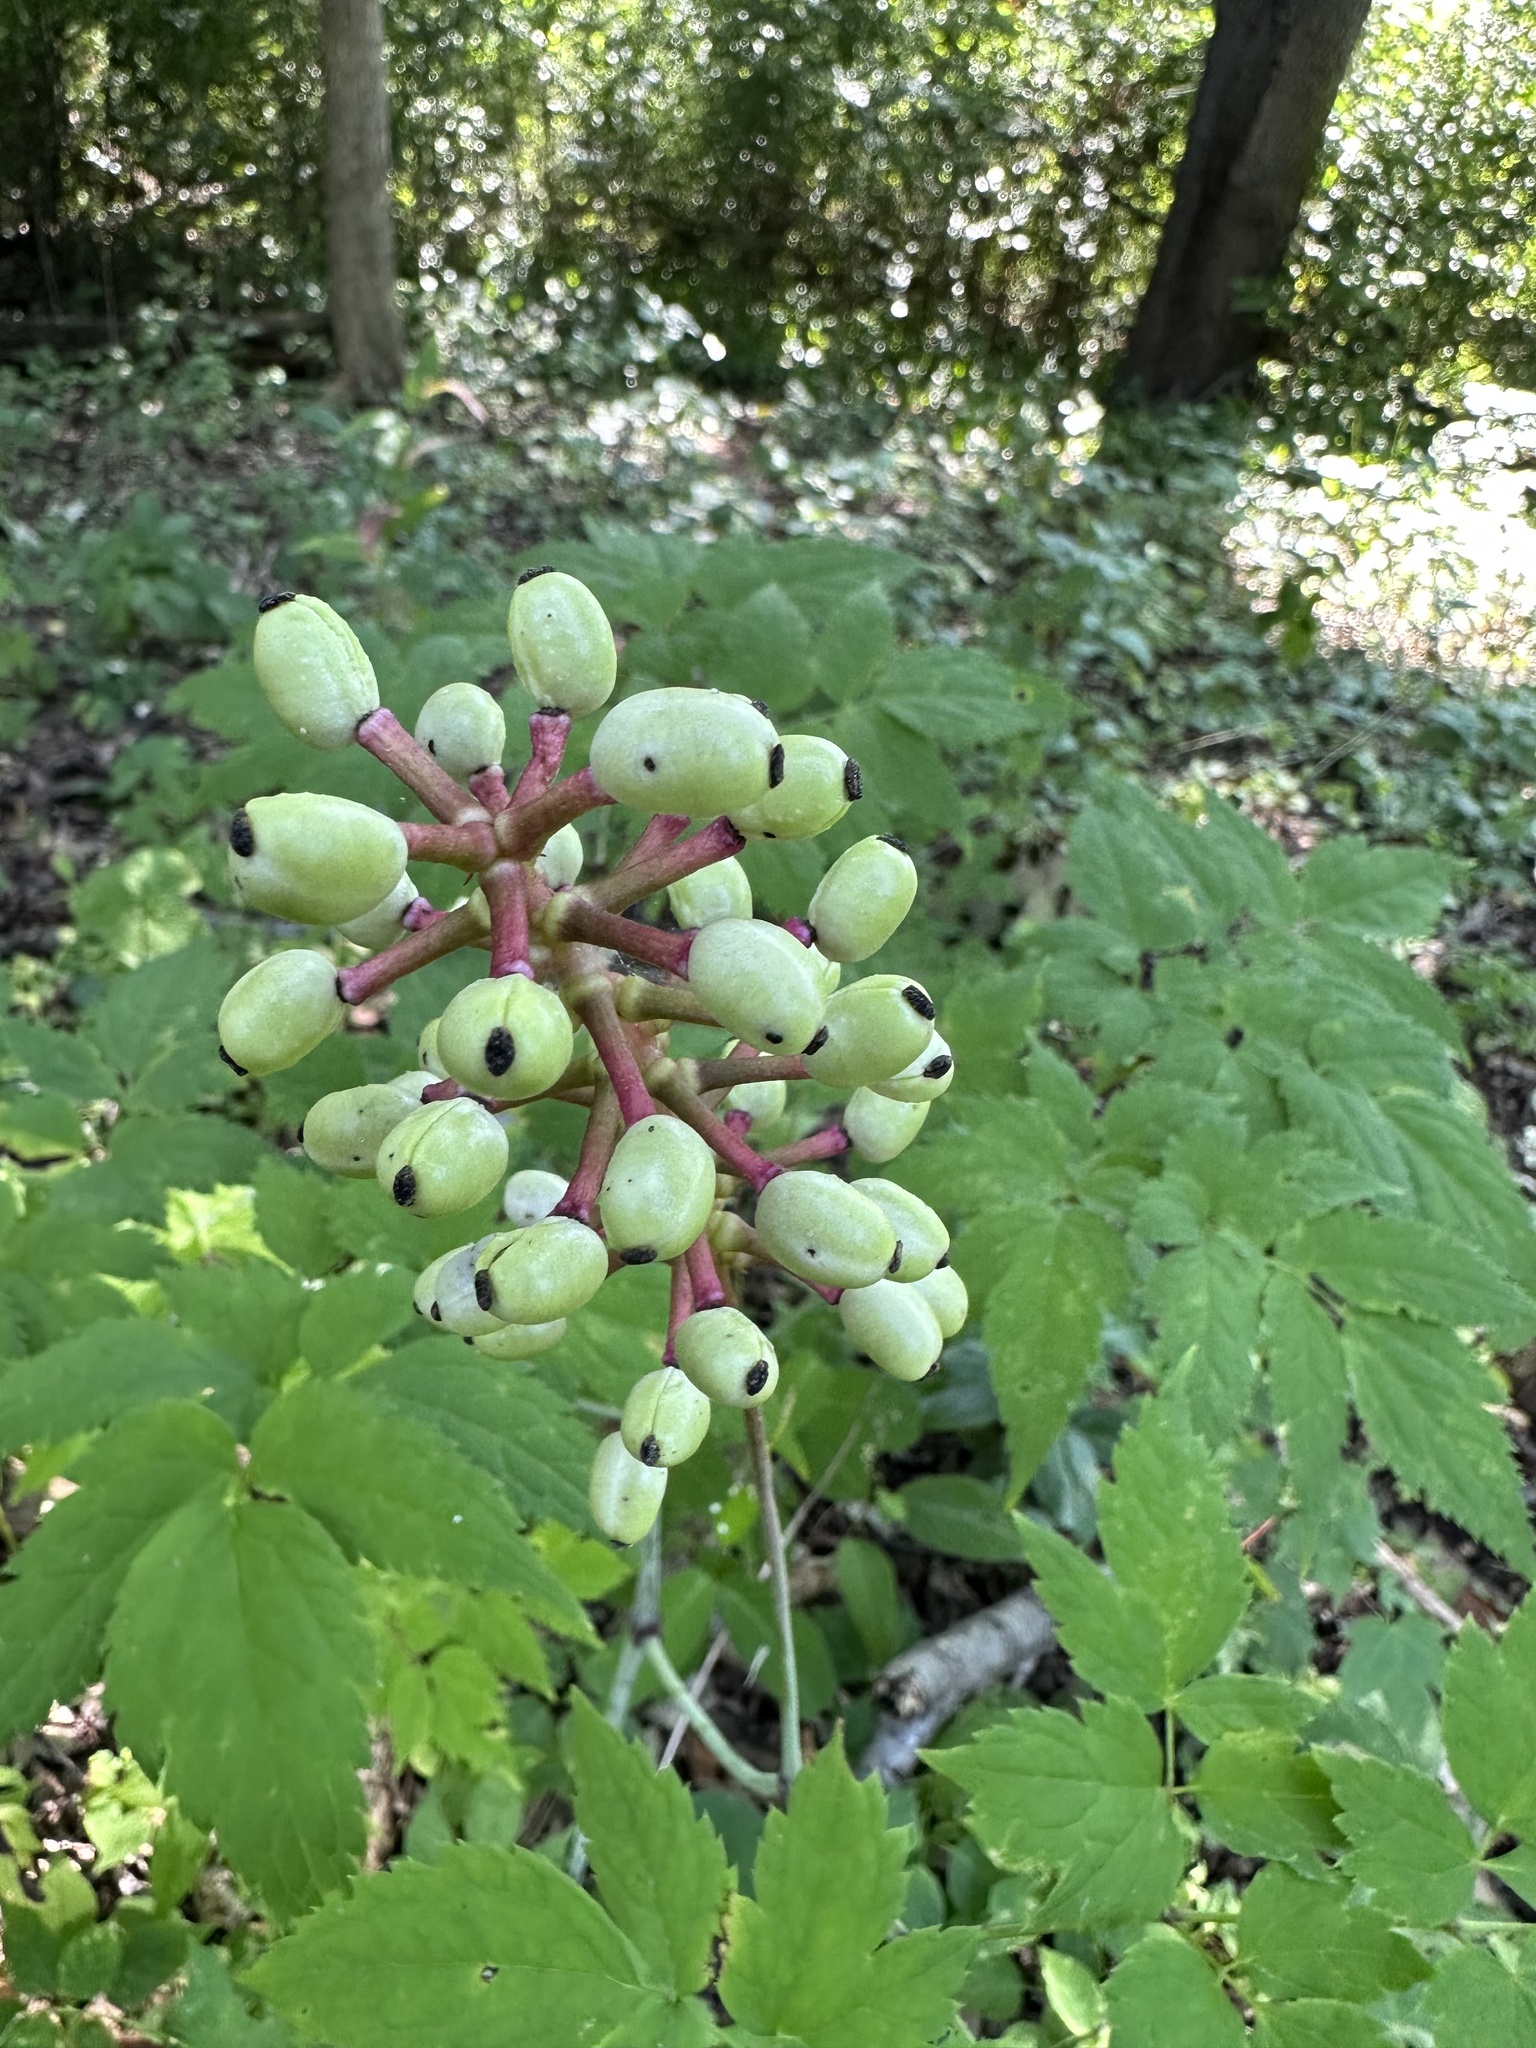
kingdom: Plantae
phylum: Tracheophyta
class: Magnoliopsida
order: Ranunculales
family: Ranunculaceae
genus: Actaea
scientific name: Actaea pachypoda
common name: Doll's-eyes
